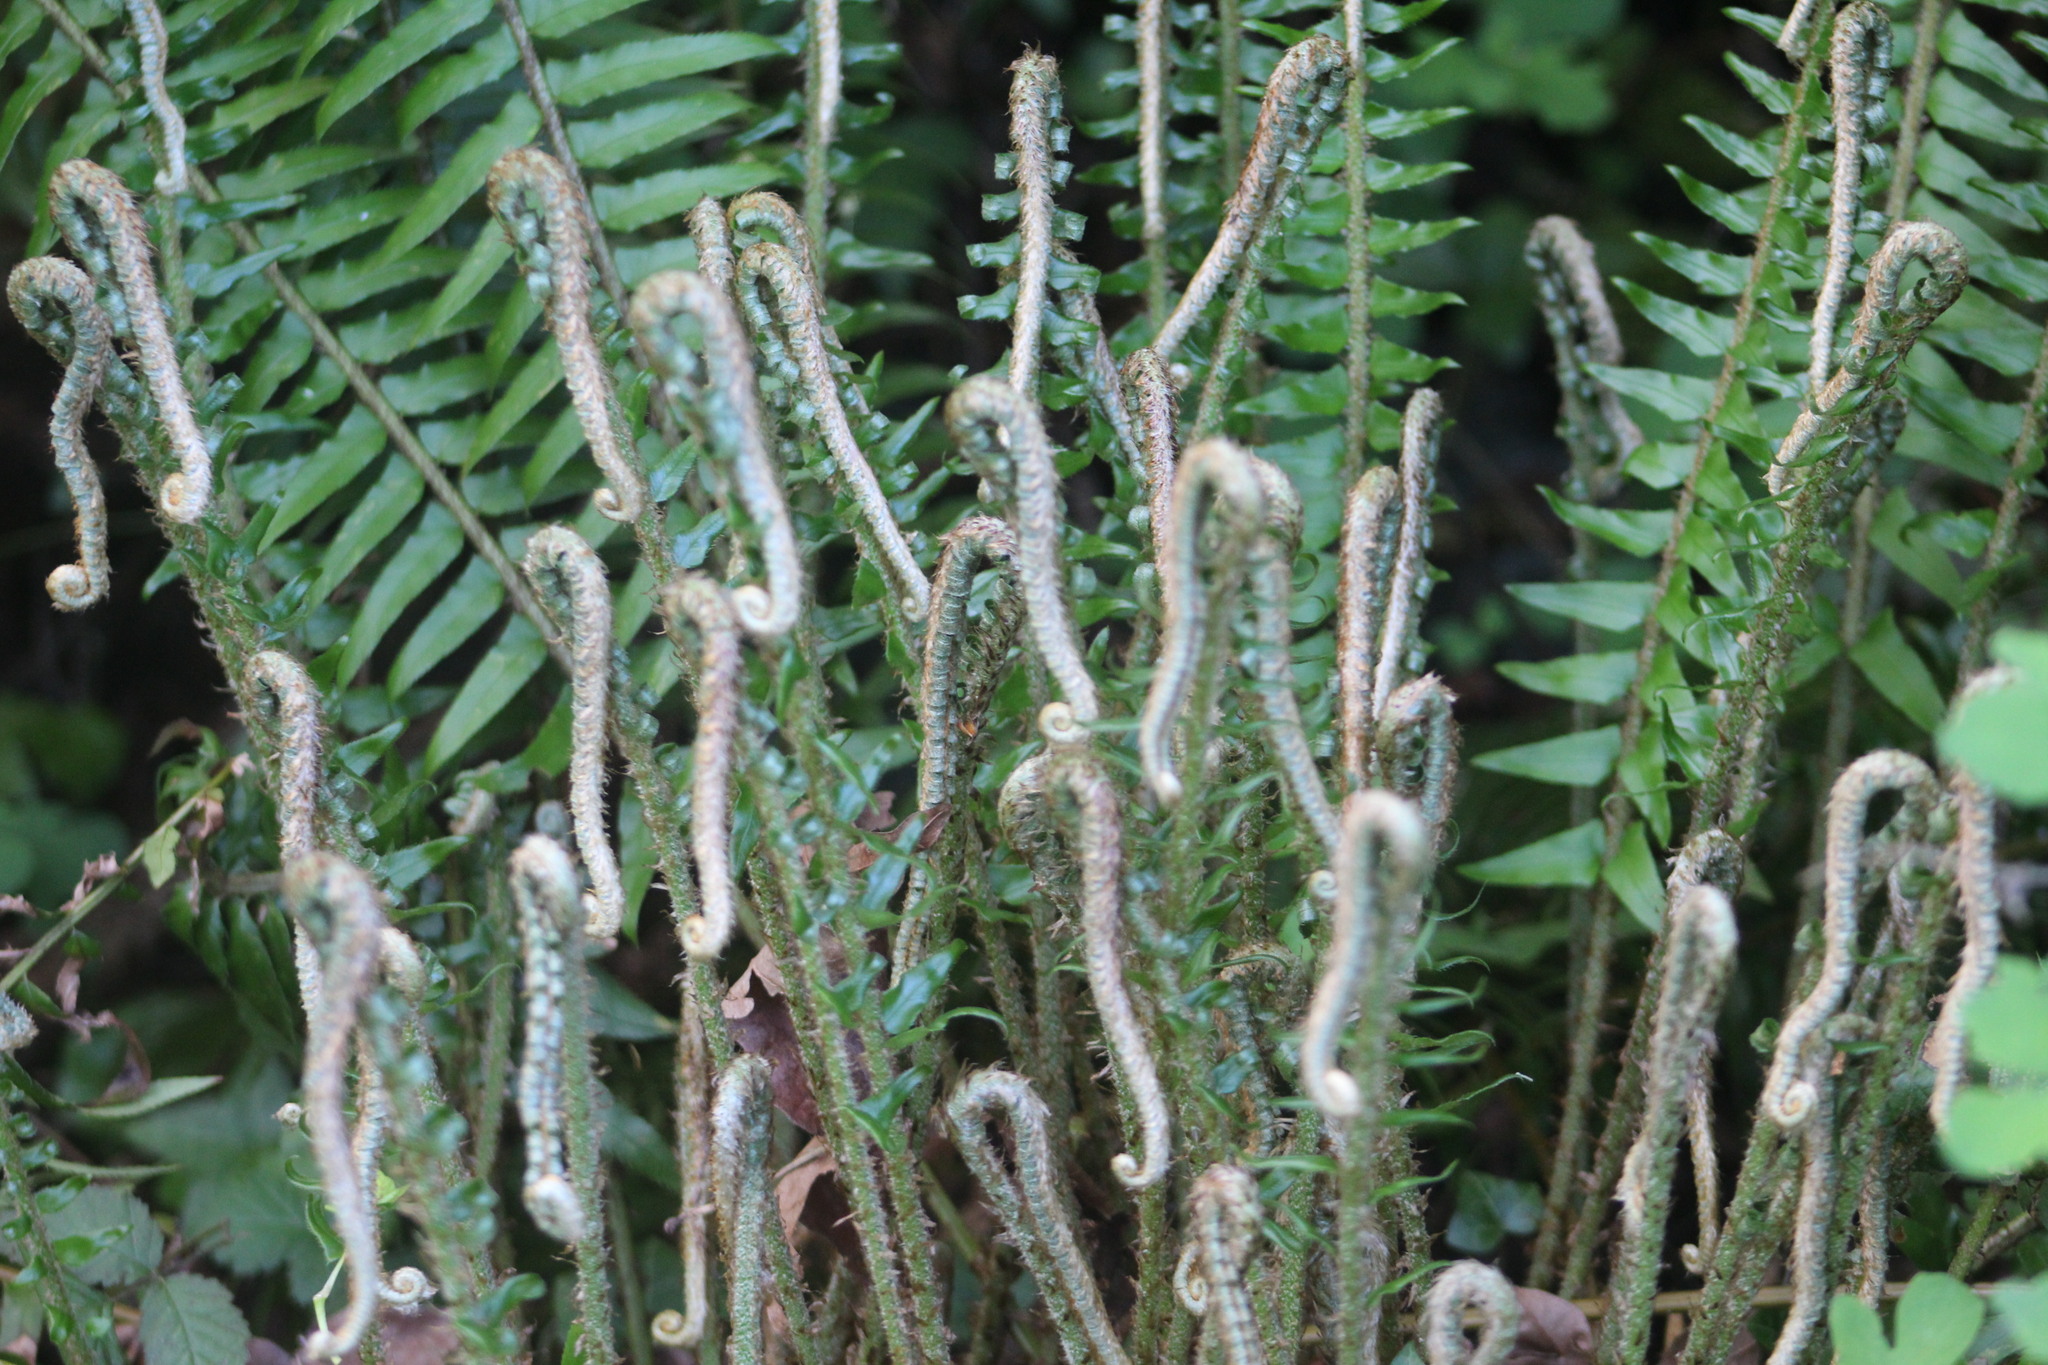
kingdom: Plantae
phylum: Tracheophyta
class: Polypodiopsida
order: Polypodiales
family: Dryopteridaceae
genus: Polystichum
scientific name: Polystichum munitum
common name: Western sword-fern
